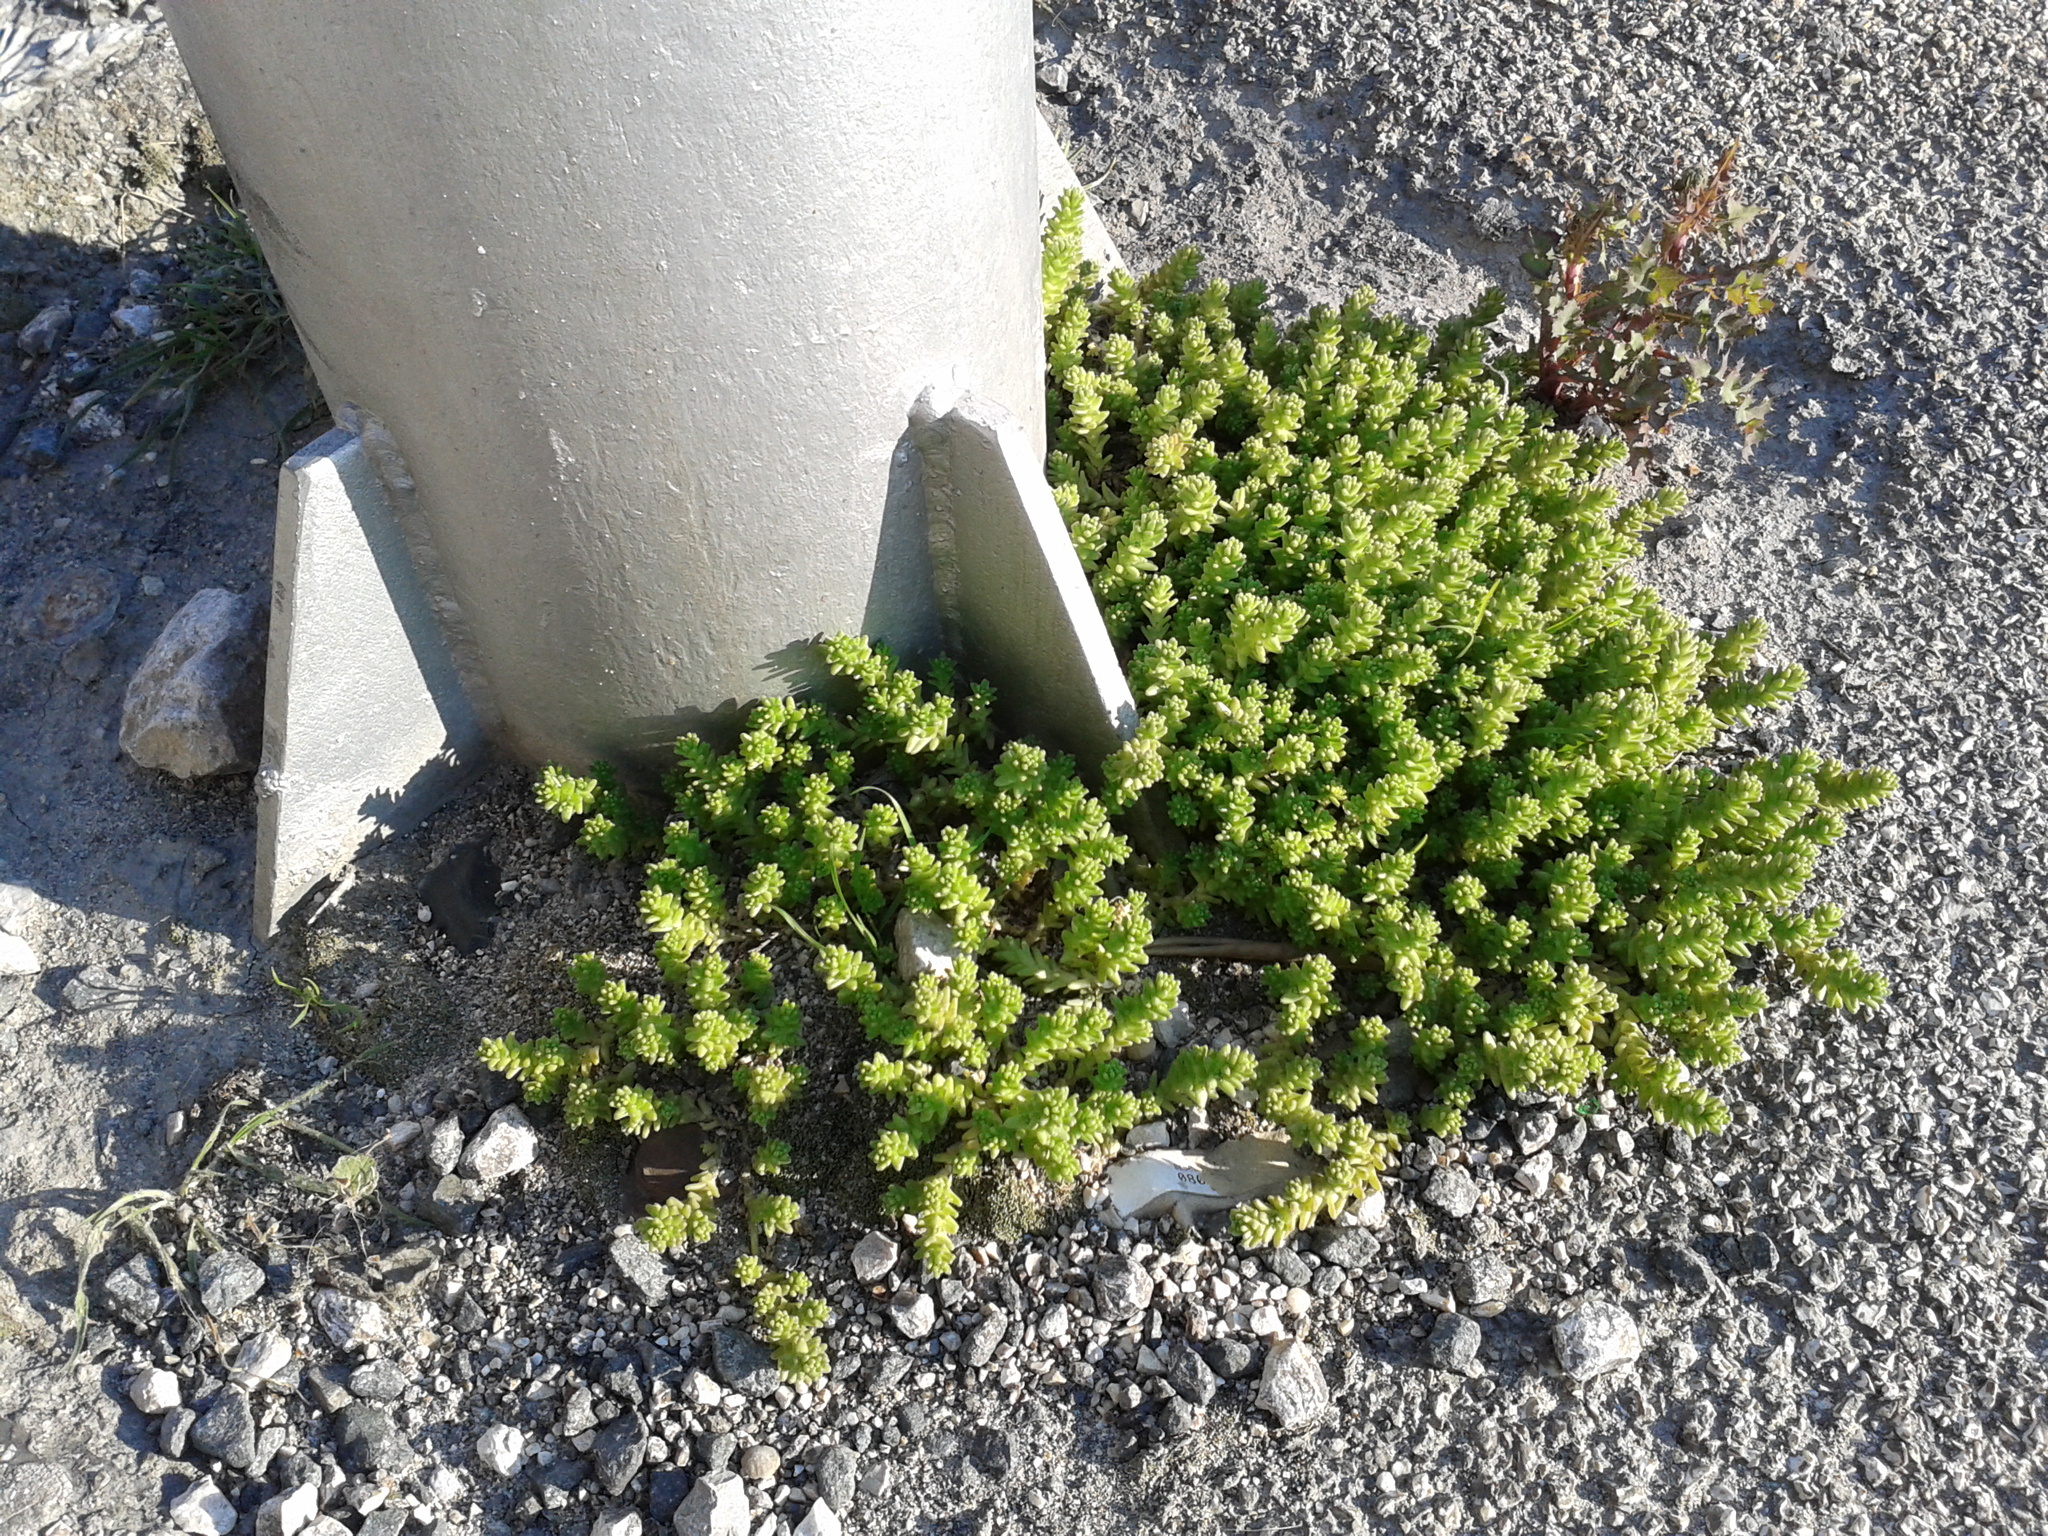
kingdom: Plantae
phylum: Tracheophyta
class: Magnoliopsida
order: Saxifragales
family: Crassulaceae
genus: Sedum
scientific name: Sedum acre
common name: Biting stonecrop
